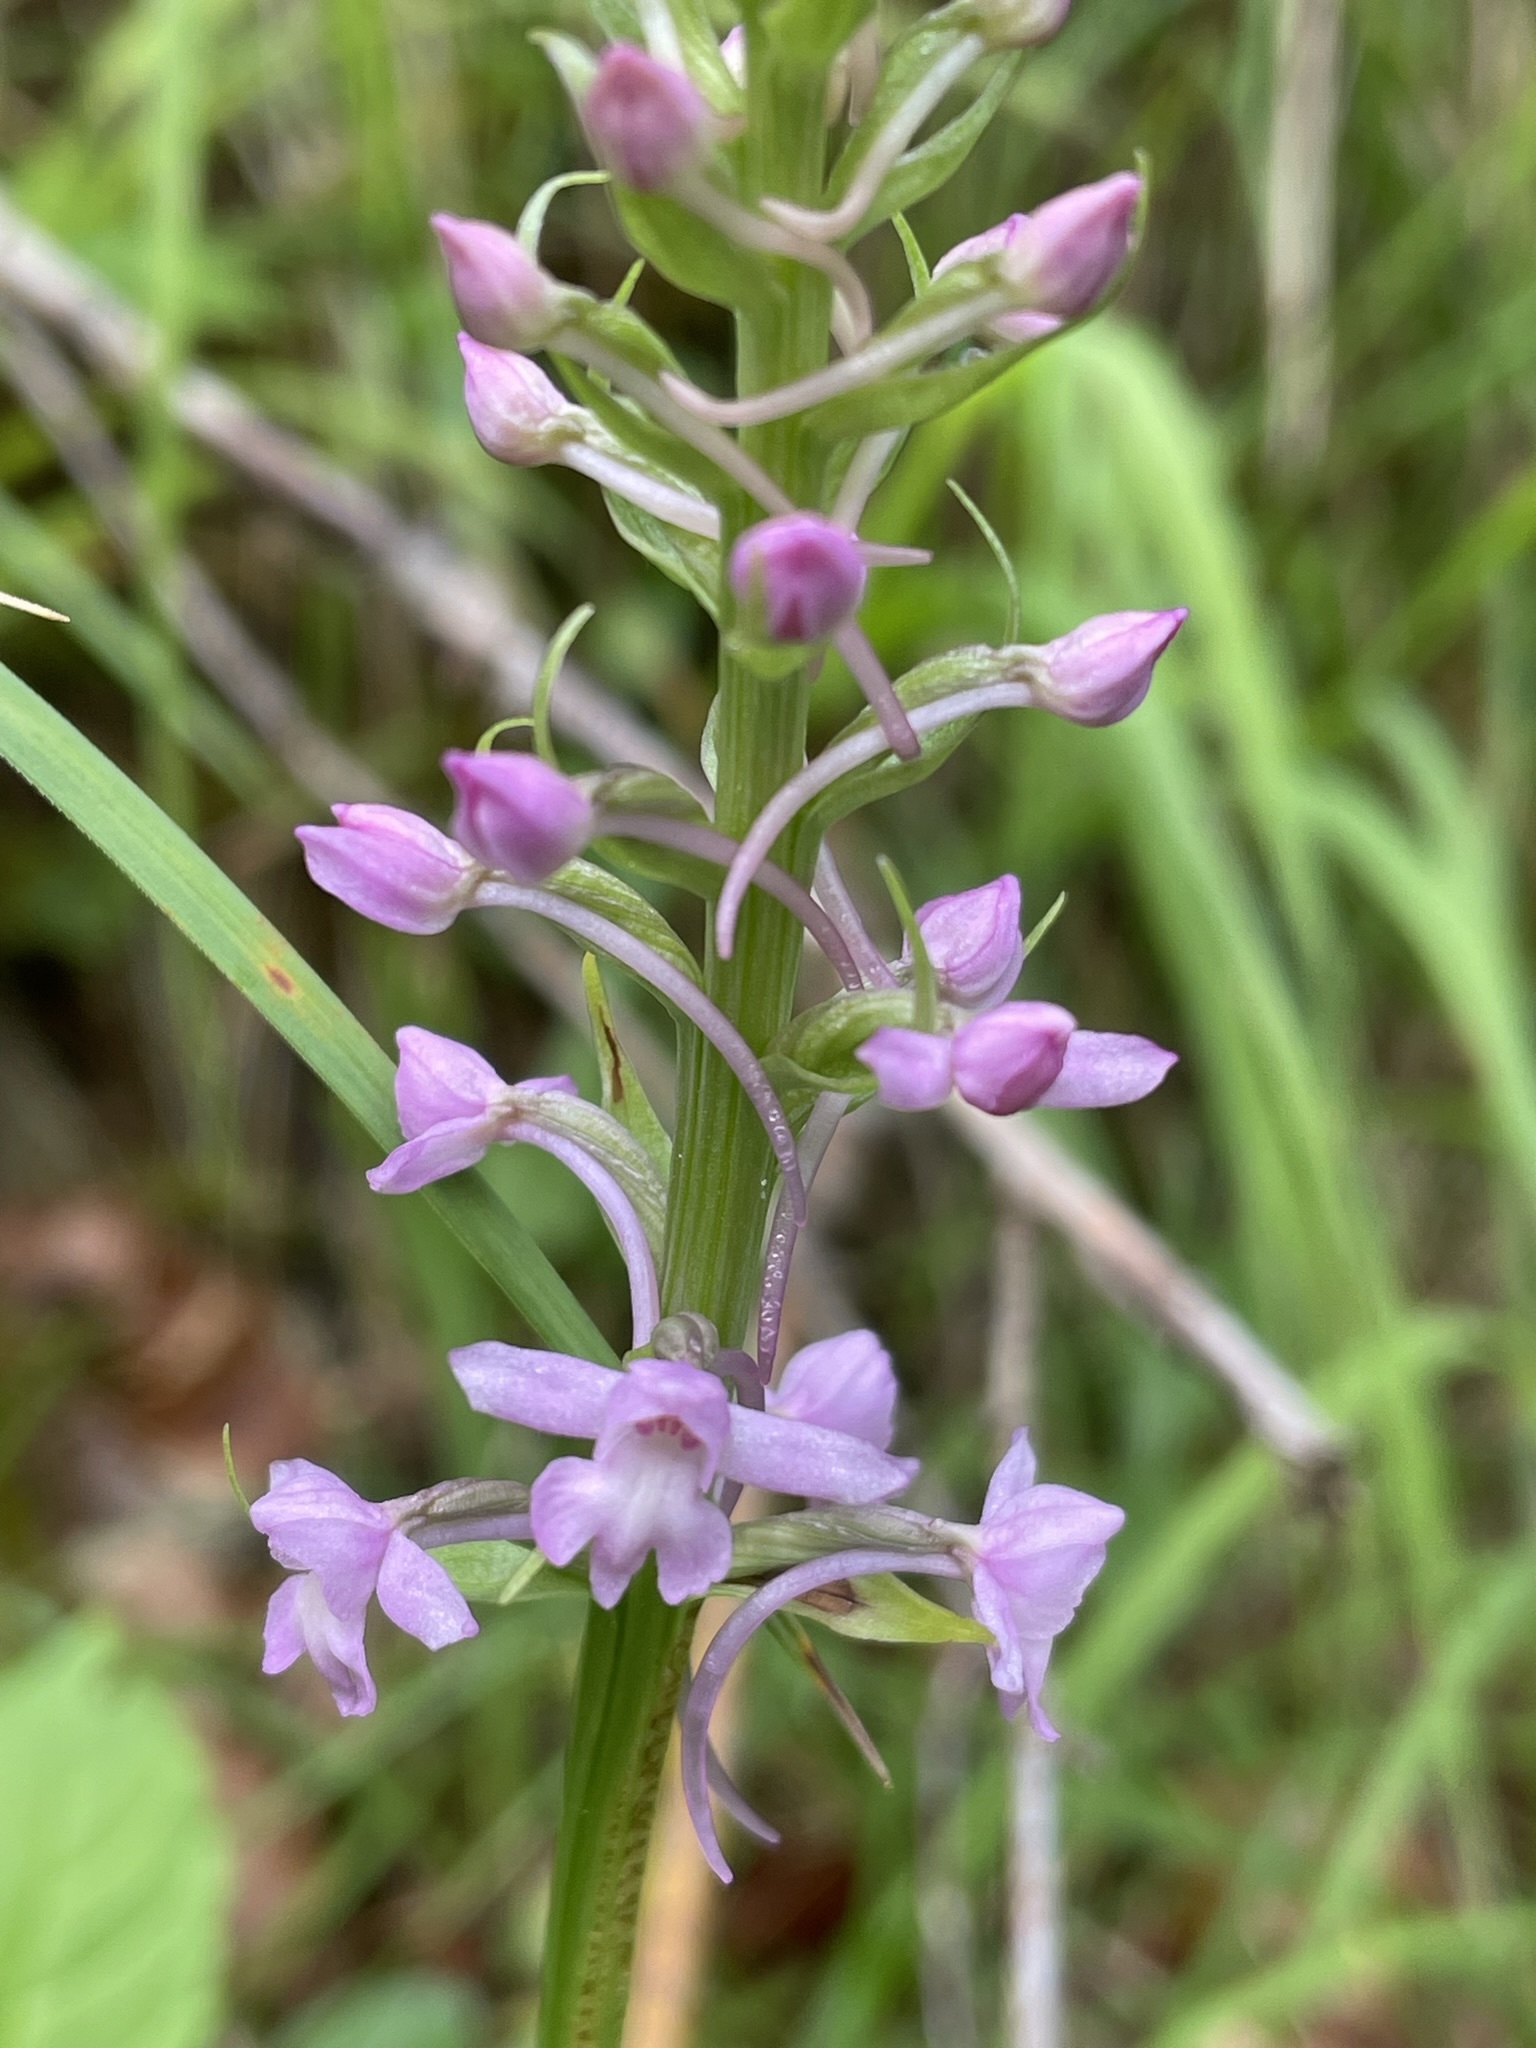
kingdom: Plantae
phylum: Tracheophyta
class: Liliopsida
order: Asparagales
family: Orchidaceae
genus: Gymnadenia
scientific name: Gymnadenia conopsea
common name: Fragrant orchid
